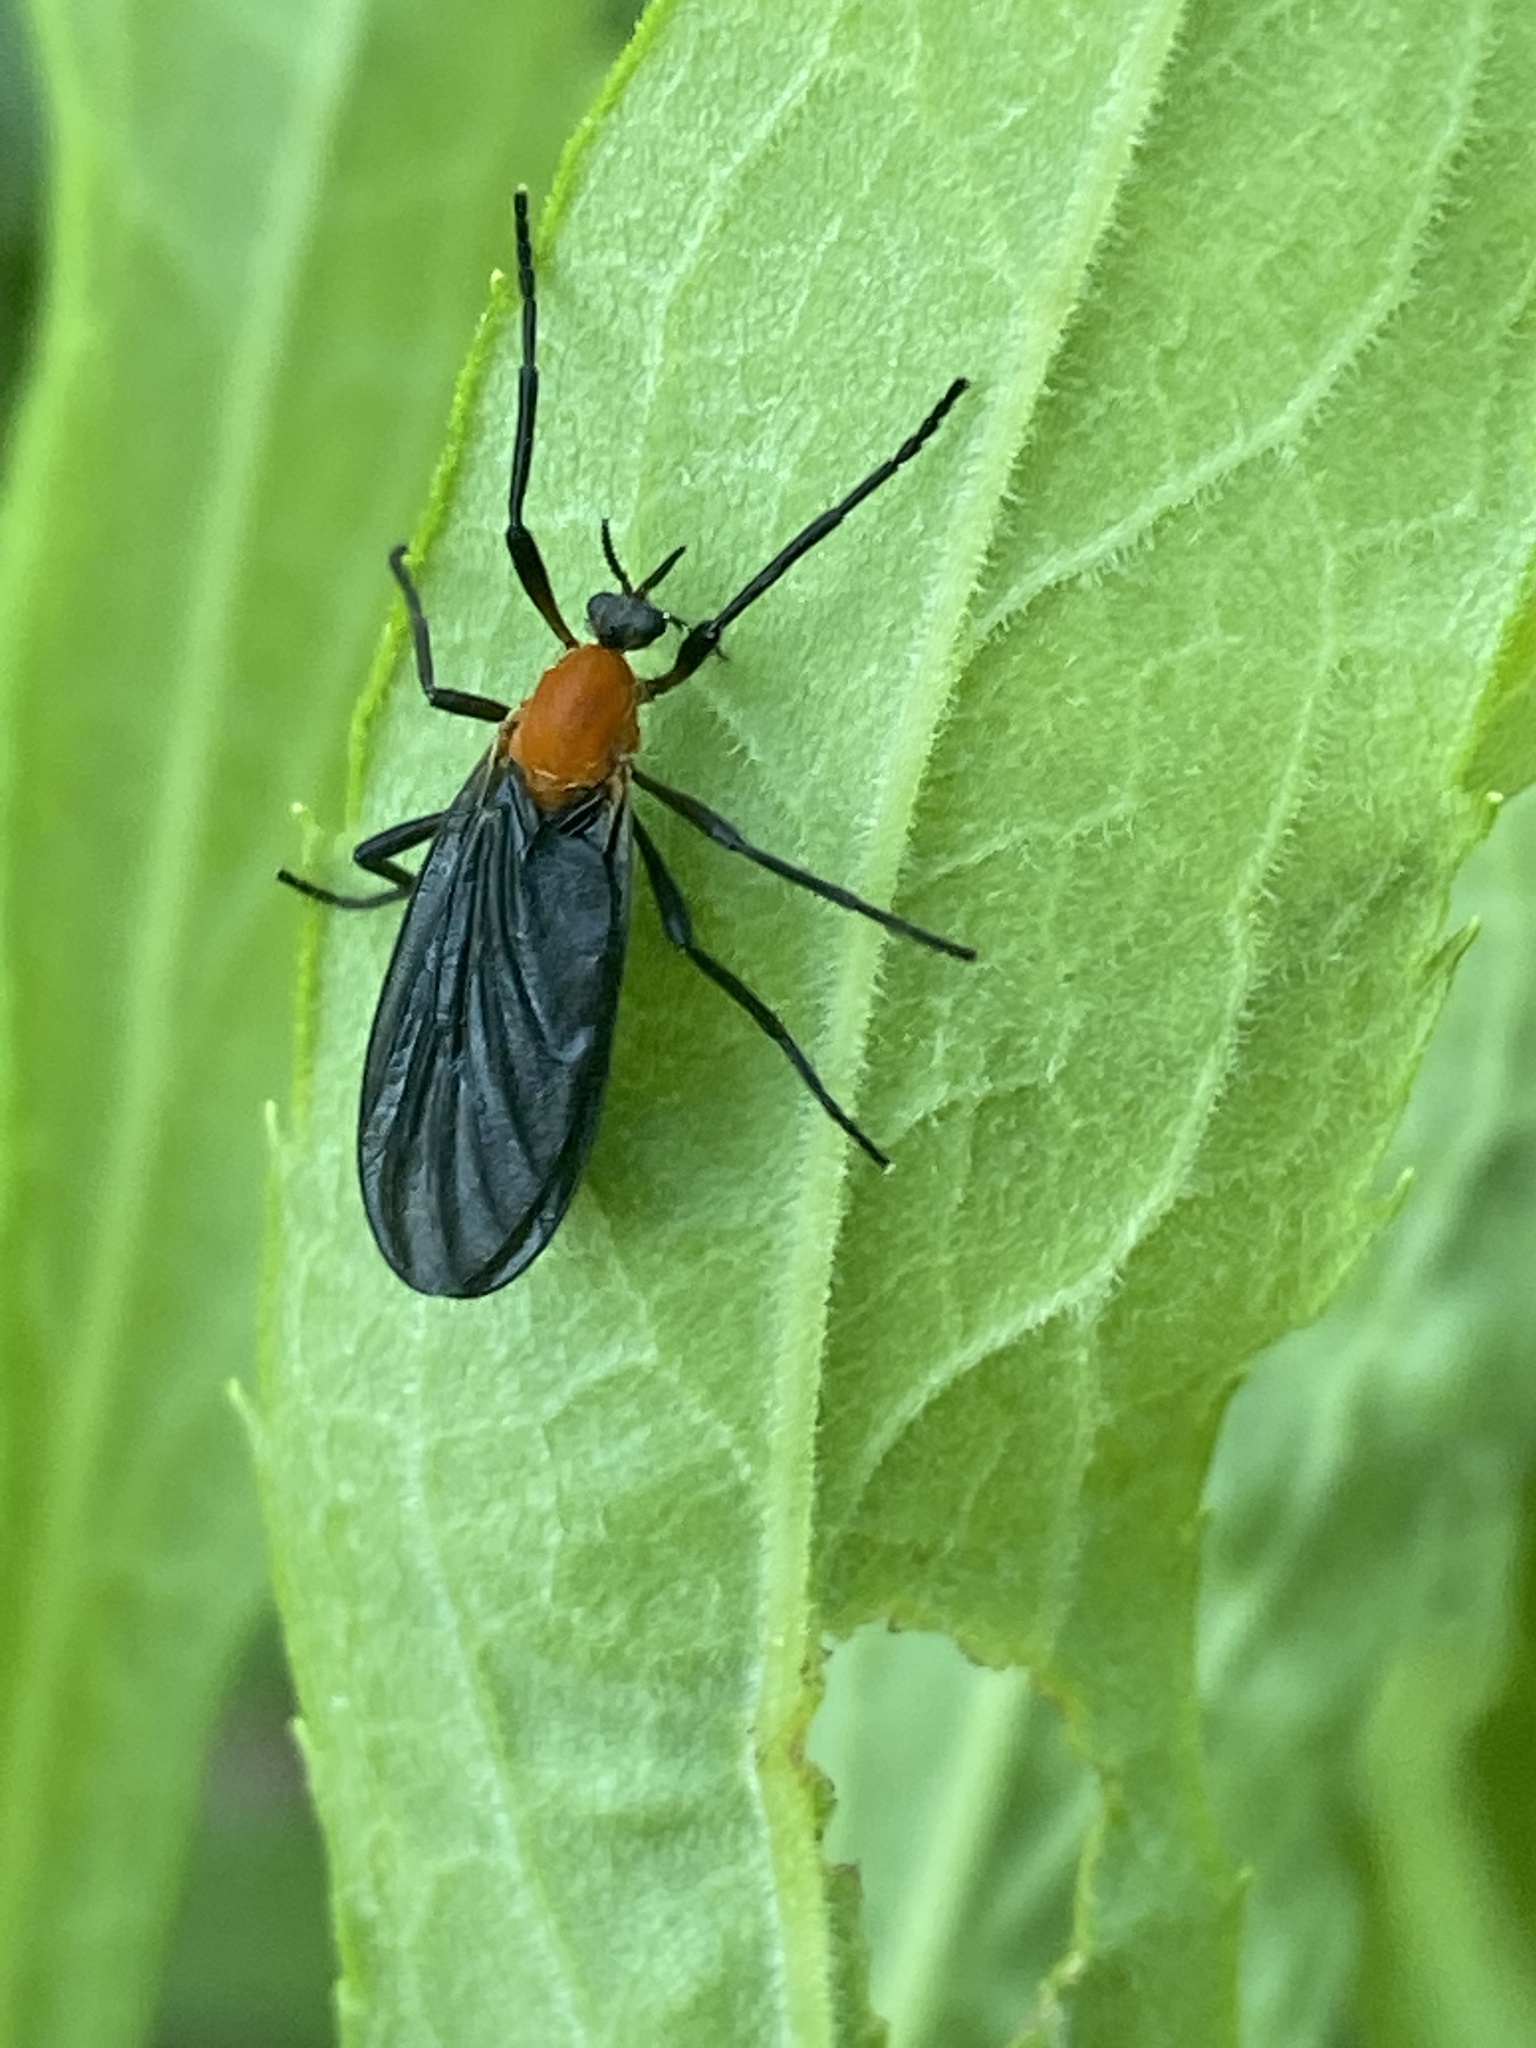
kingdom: Animalia
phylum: Arthropoda
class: Insecta
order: Diptera
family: Bibionidae
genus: Plecia
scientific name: Plecia americana
